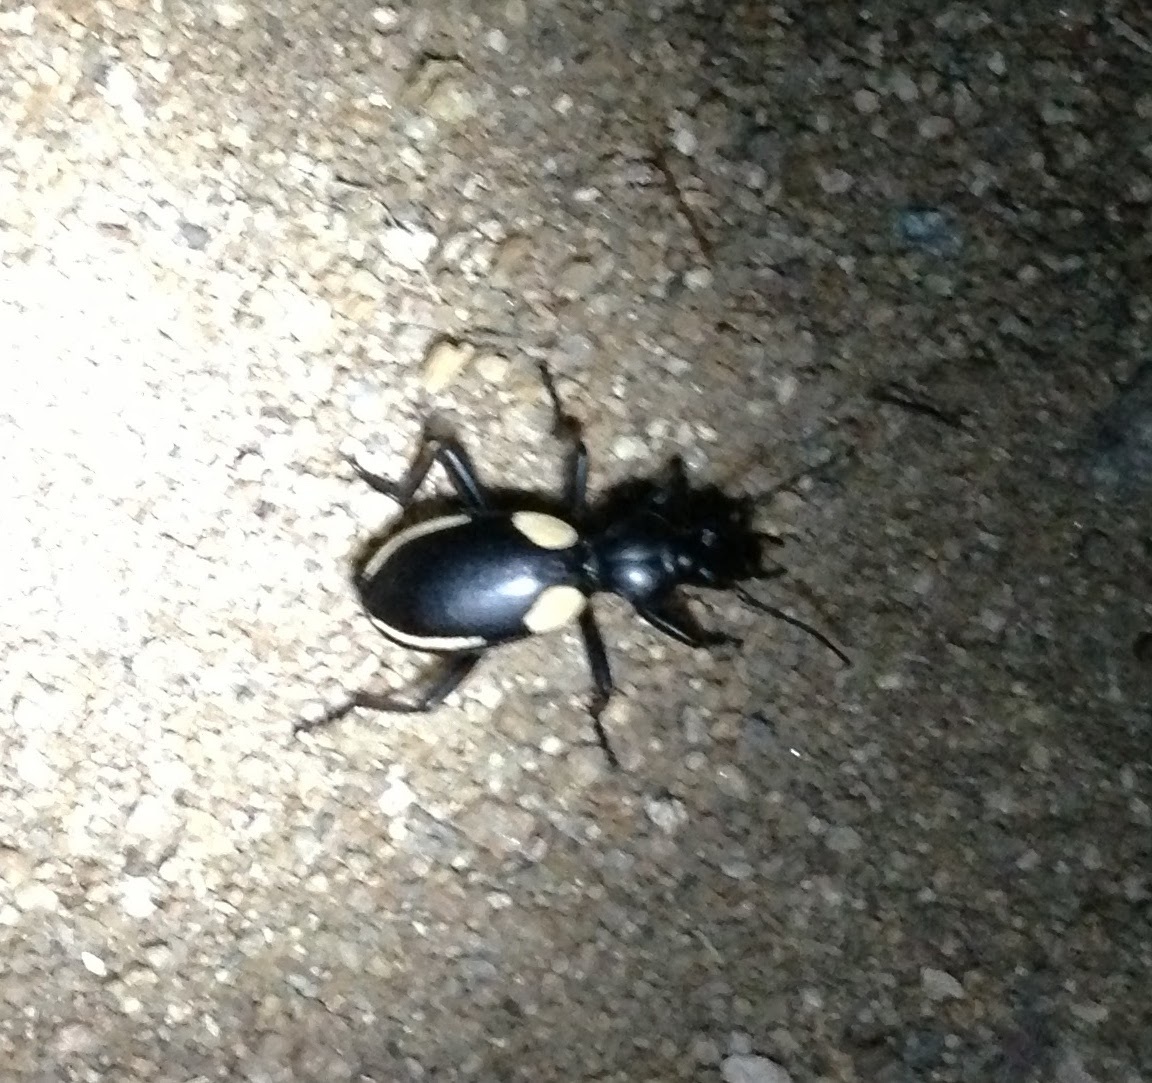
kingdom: Animalia
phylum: Arthropoda
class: Insecta
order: Coleoptera
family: Carabidae
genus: Anthia
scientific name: Anthia
